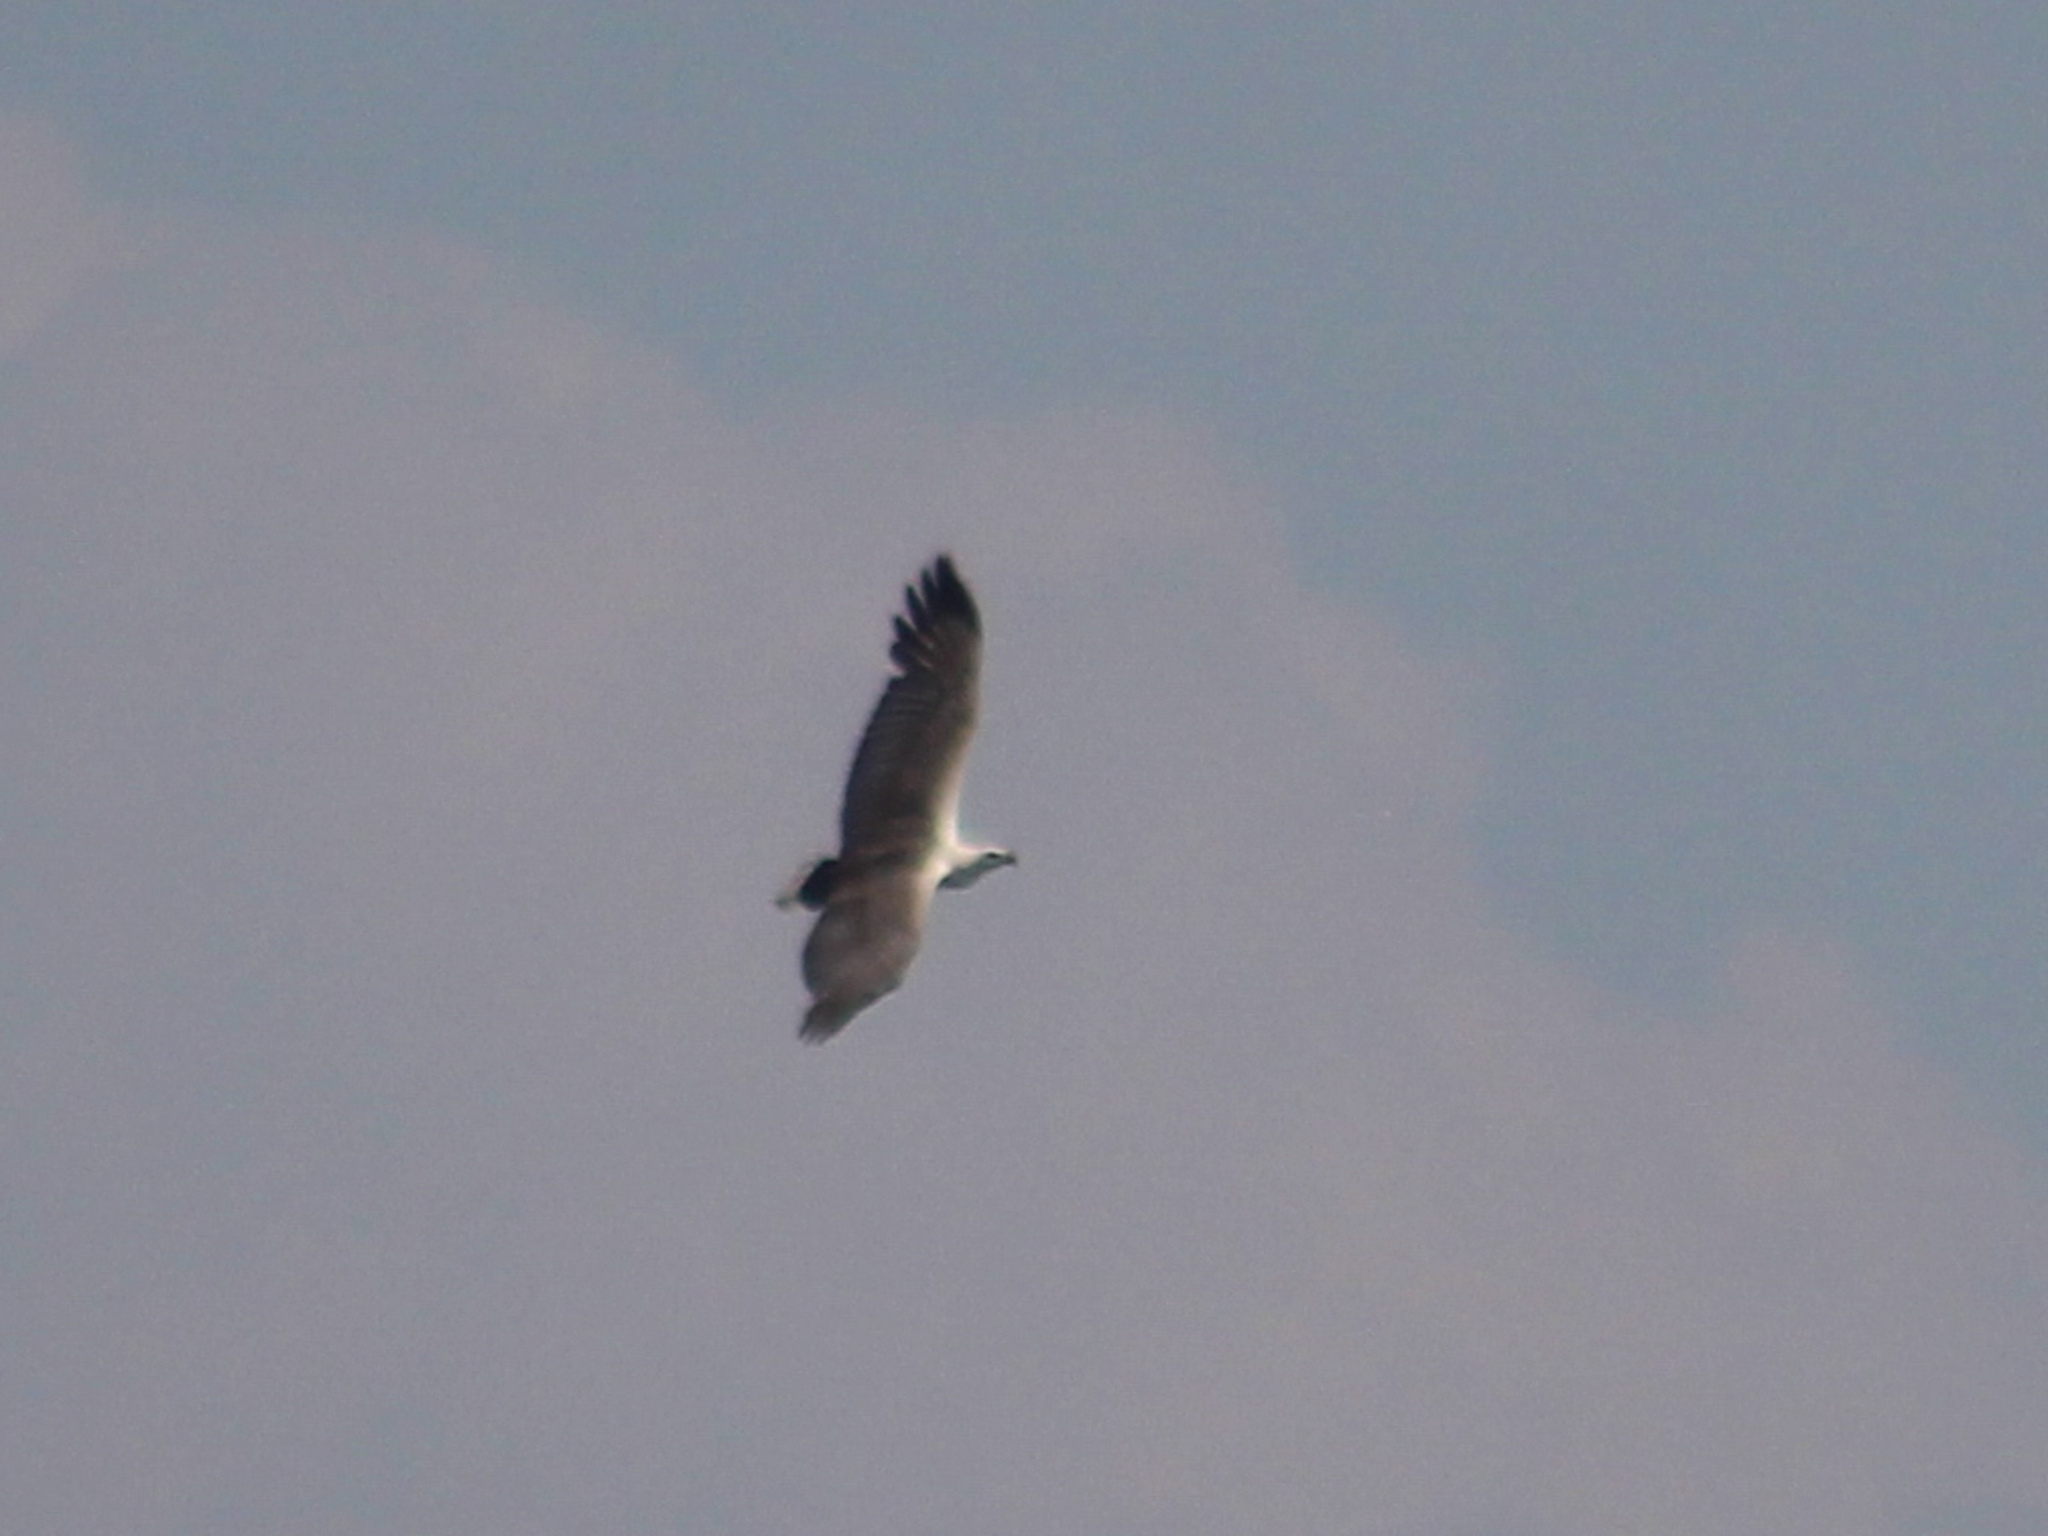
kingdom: Animalia
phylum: Chordata
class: Aves
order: Accipitriformes
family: Accipitridae
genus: Haliaeetus
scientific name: Haliaeetus leucogaster
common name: White-bellied sea eagle
